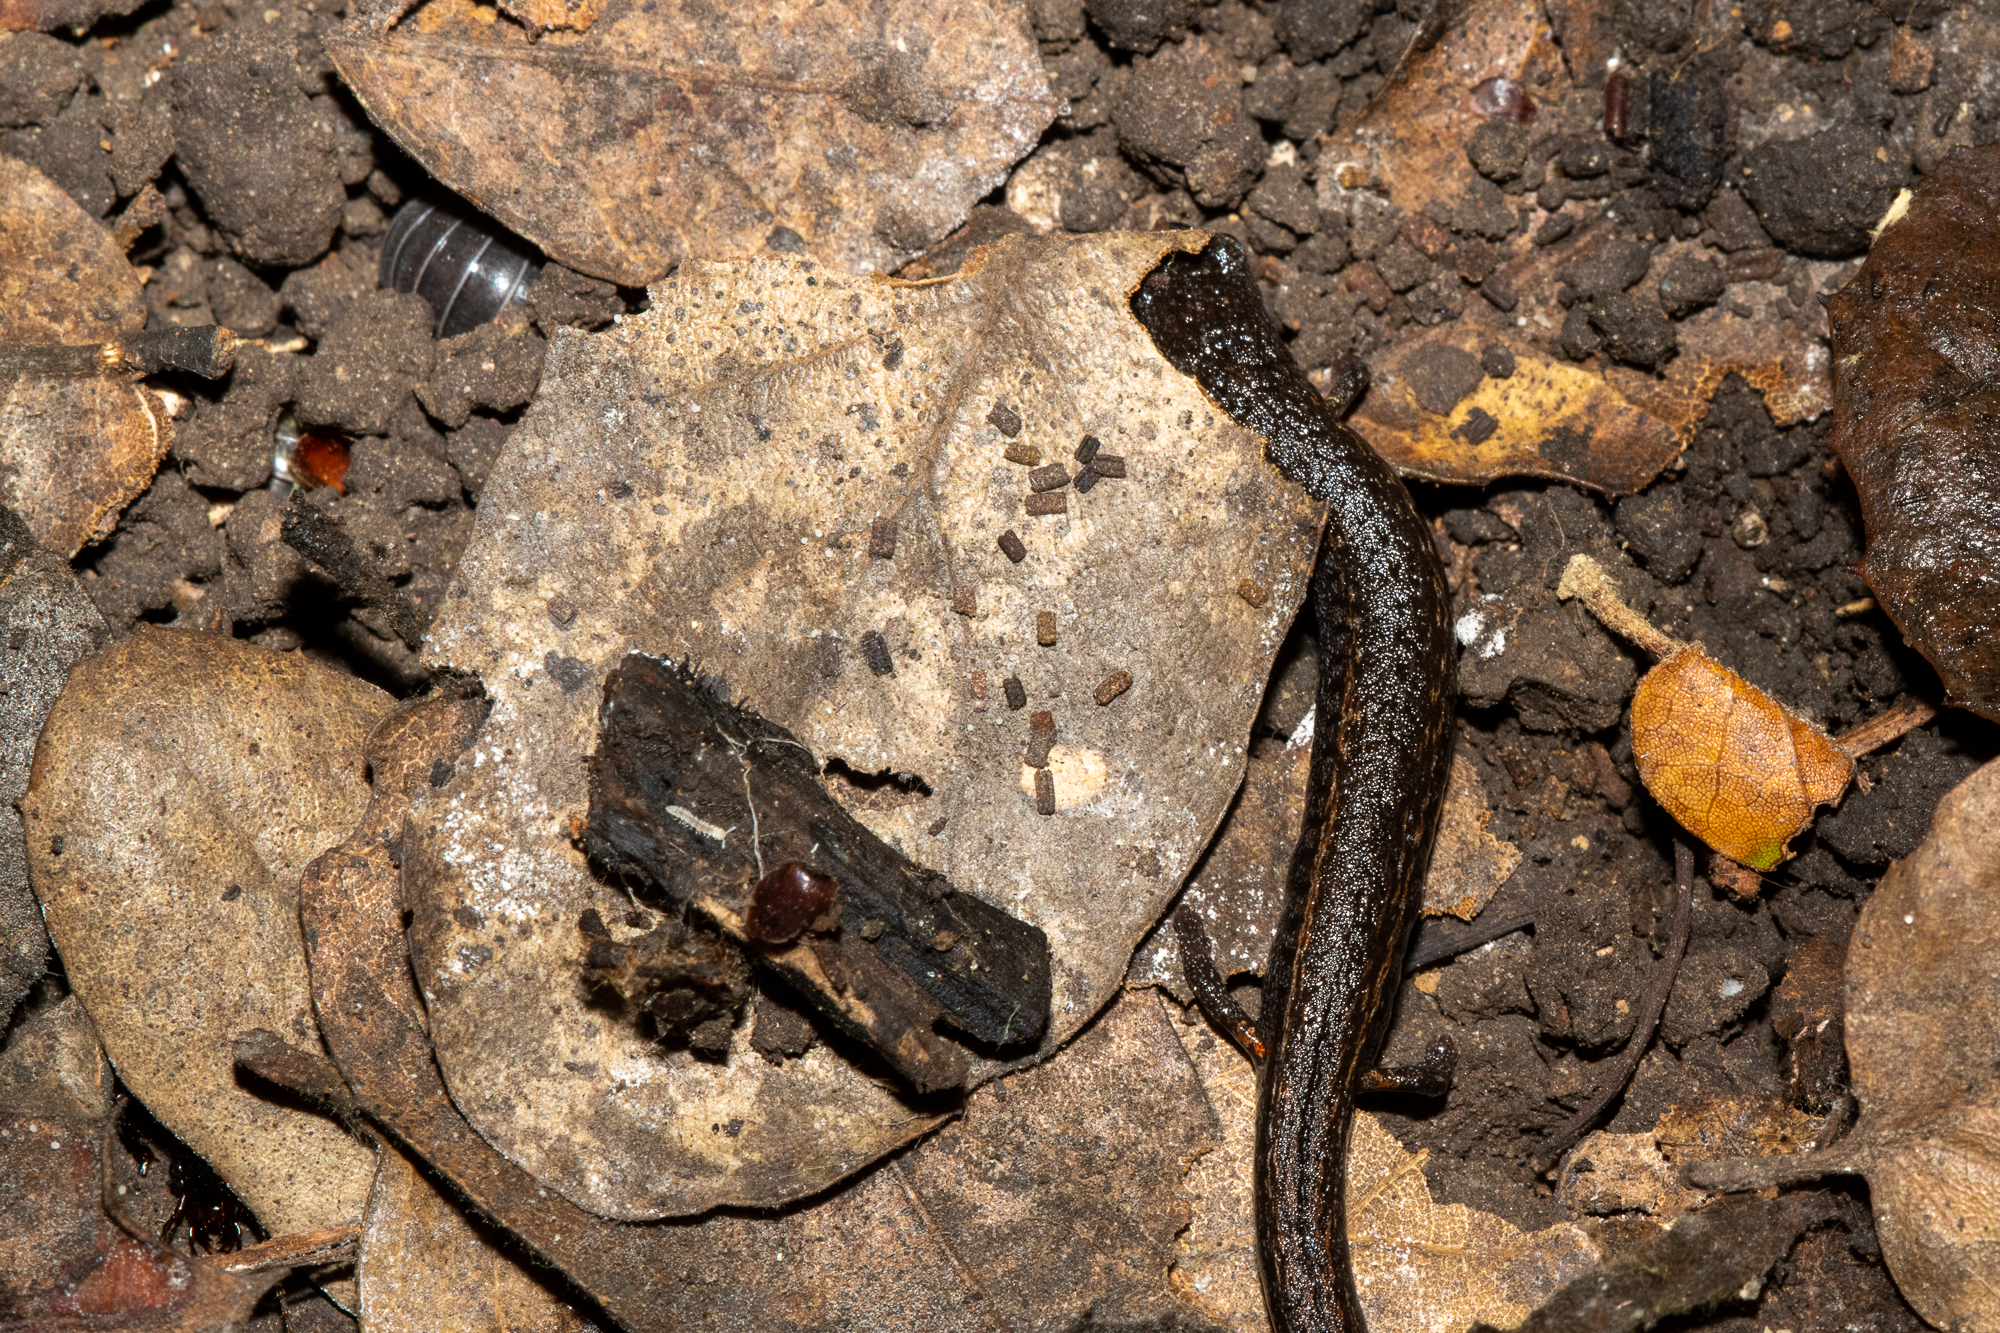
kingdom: Animalia
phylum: Chordata
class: Amphibia
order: Caudata
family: Plethodontidae
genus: Batrachoseps
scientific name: Batrachoseps attenuatus
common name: California slender salamander
